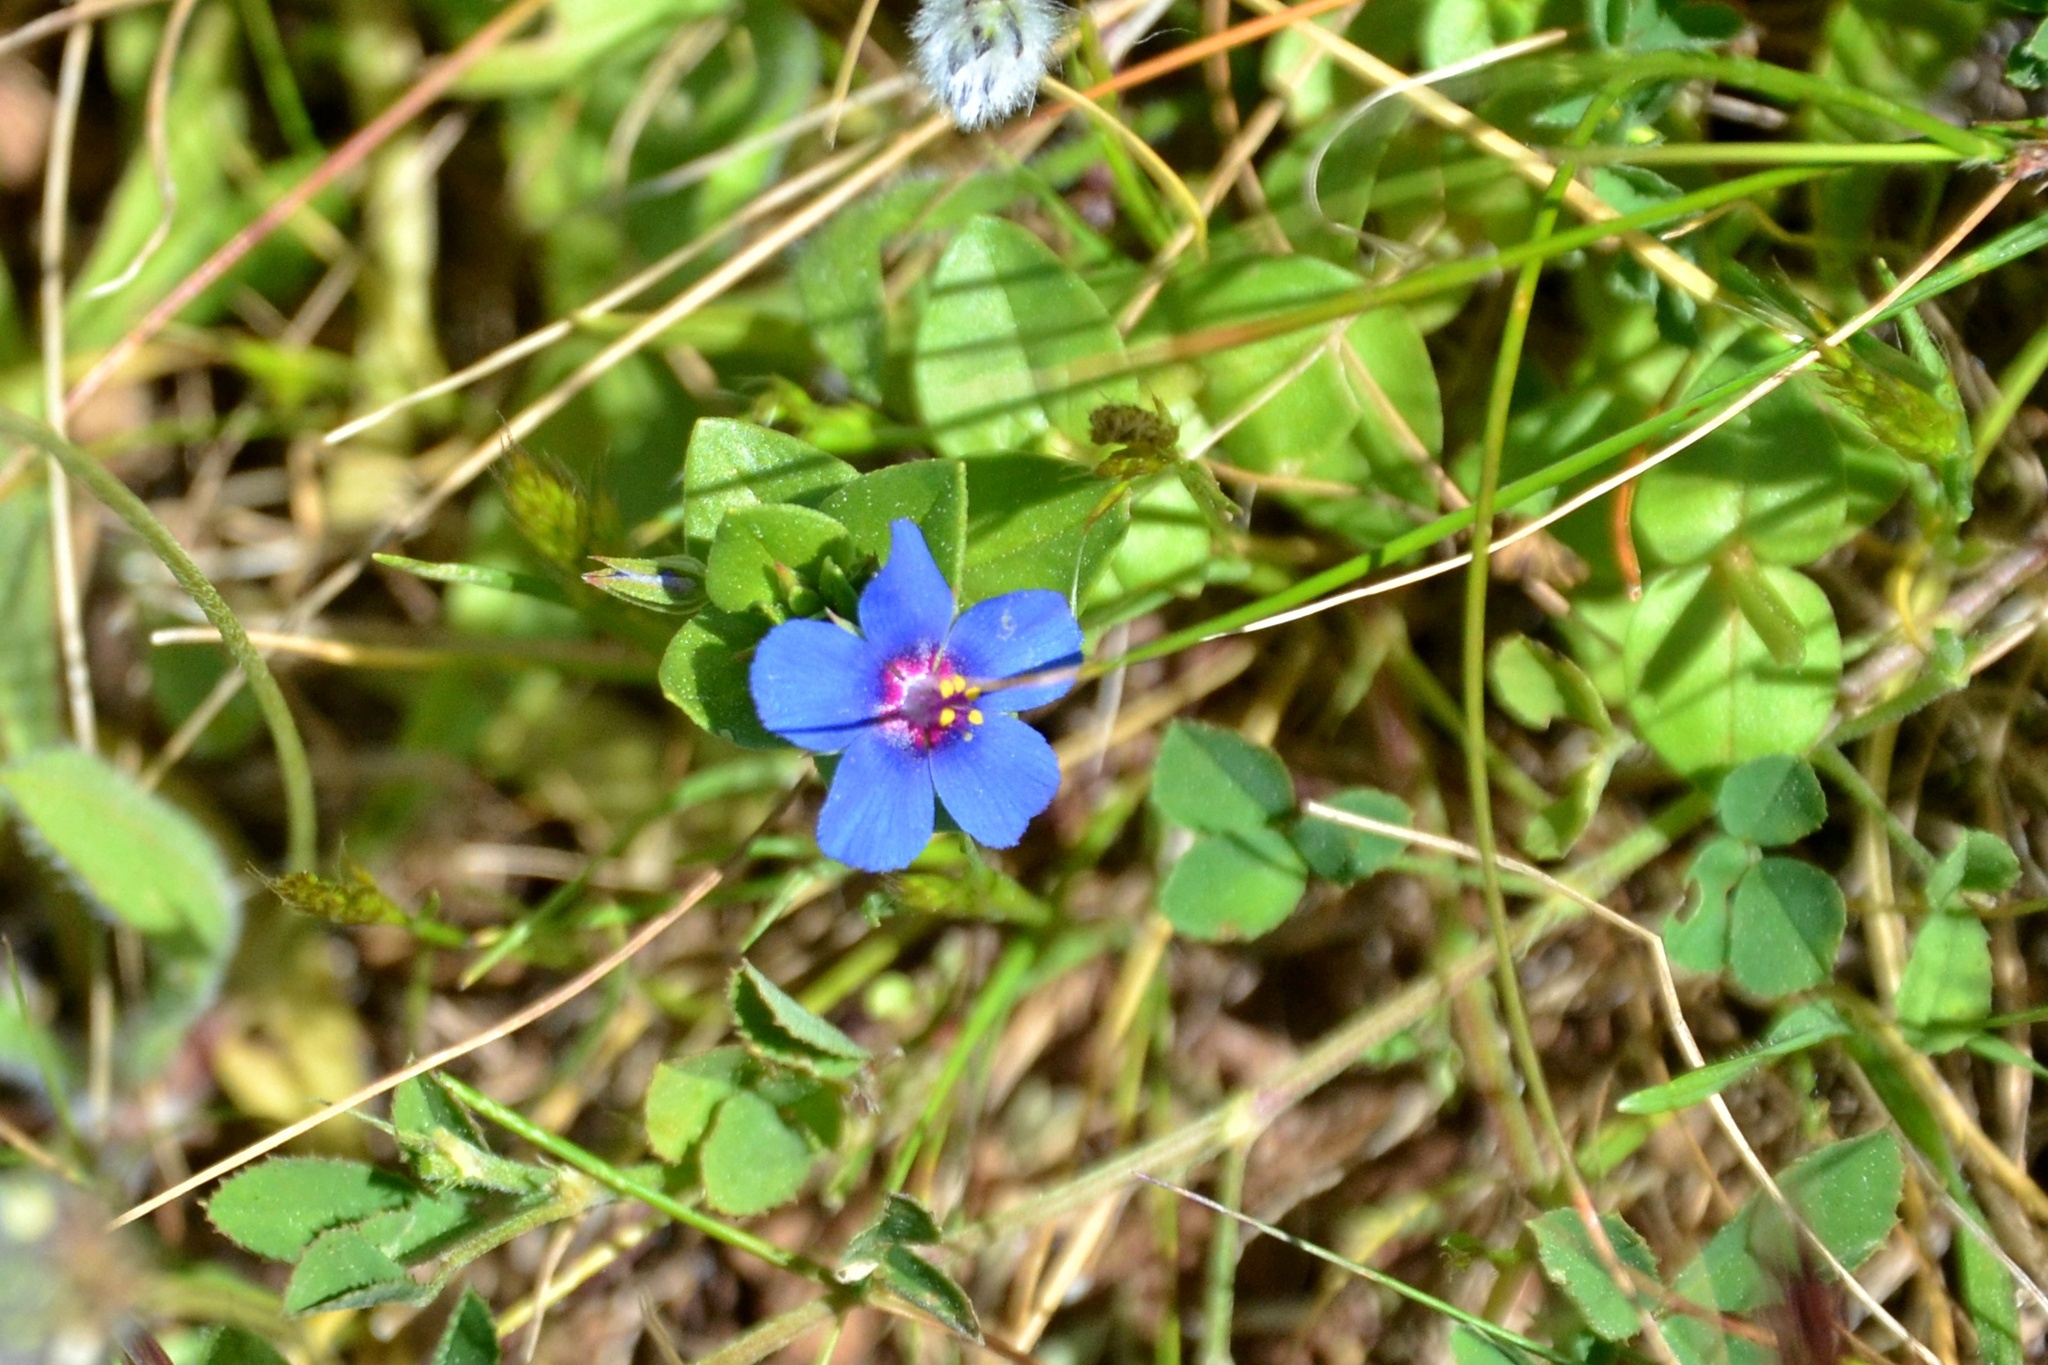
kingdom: Plantae
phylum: Tracheophyta
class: Magnoliopsida
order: Ericales
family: Primulaceae
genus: Lysimachia
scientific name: Lysimachia foemina
